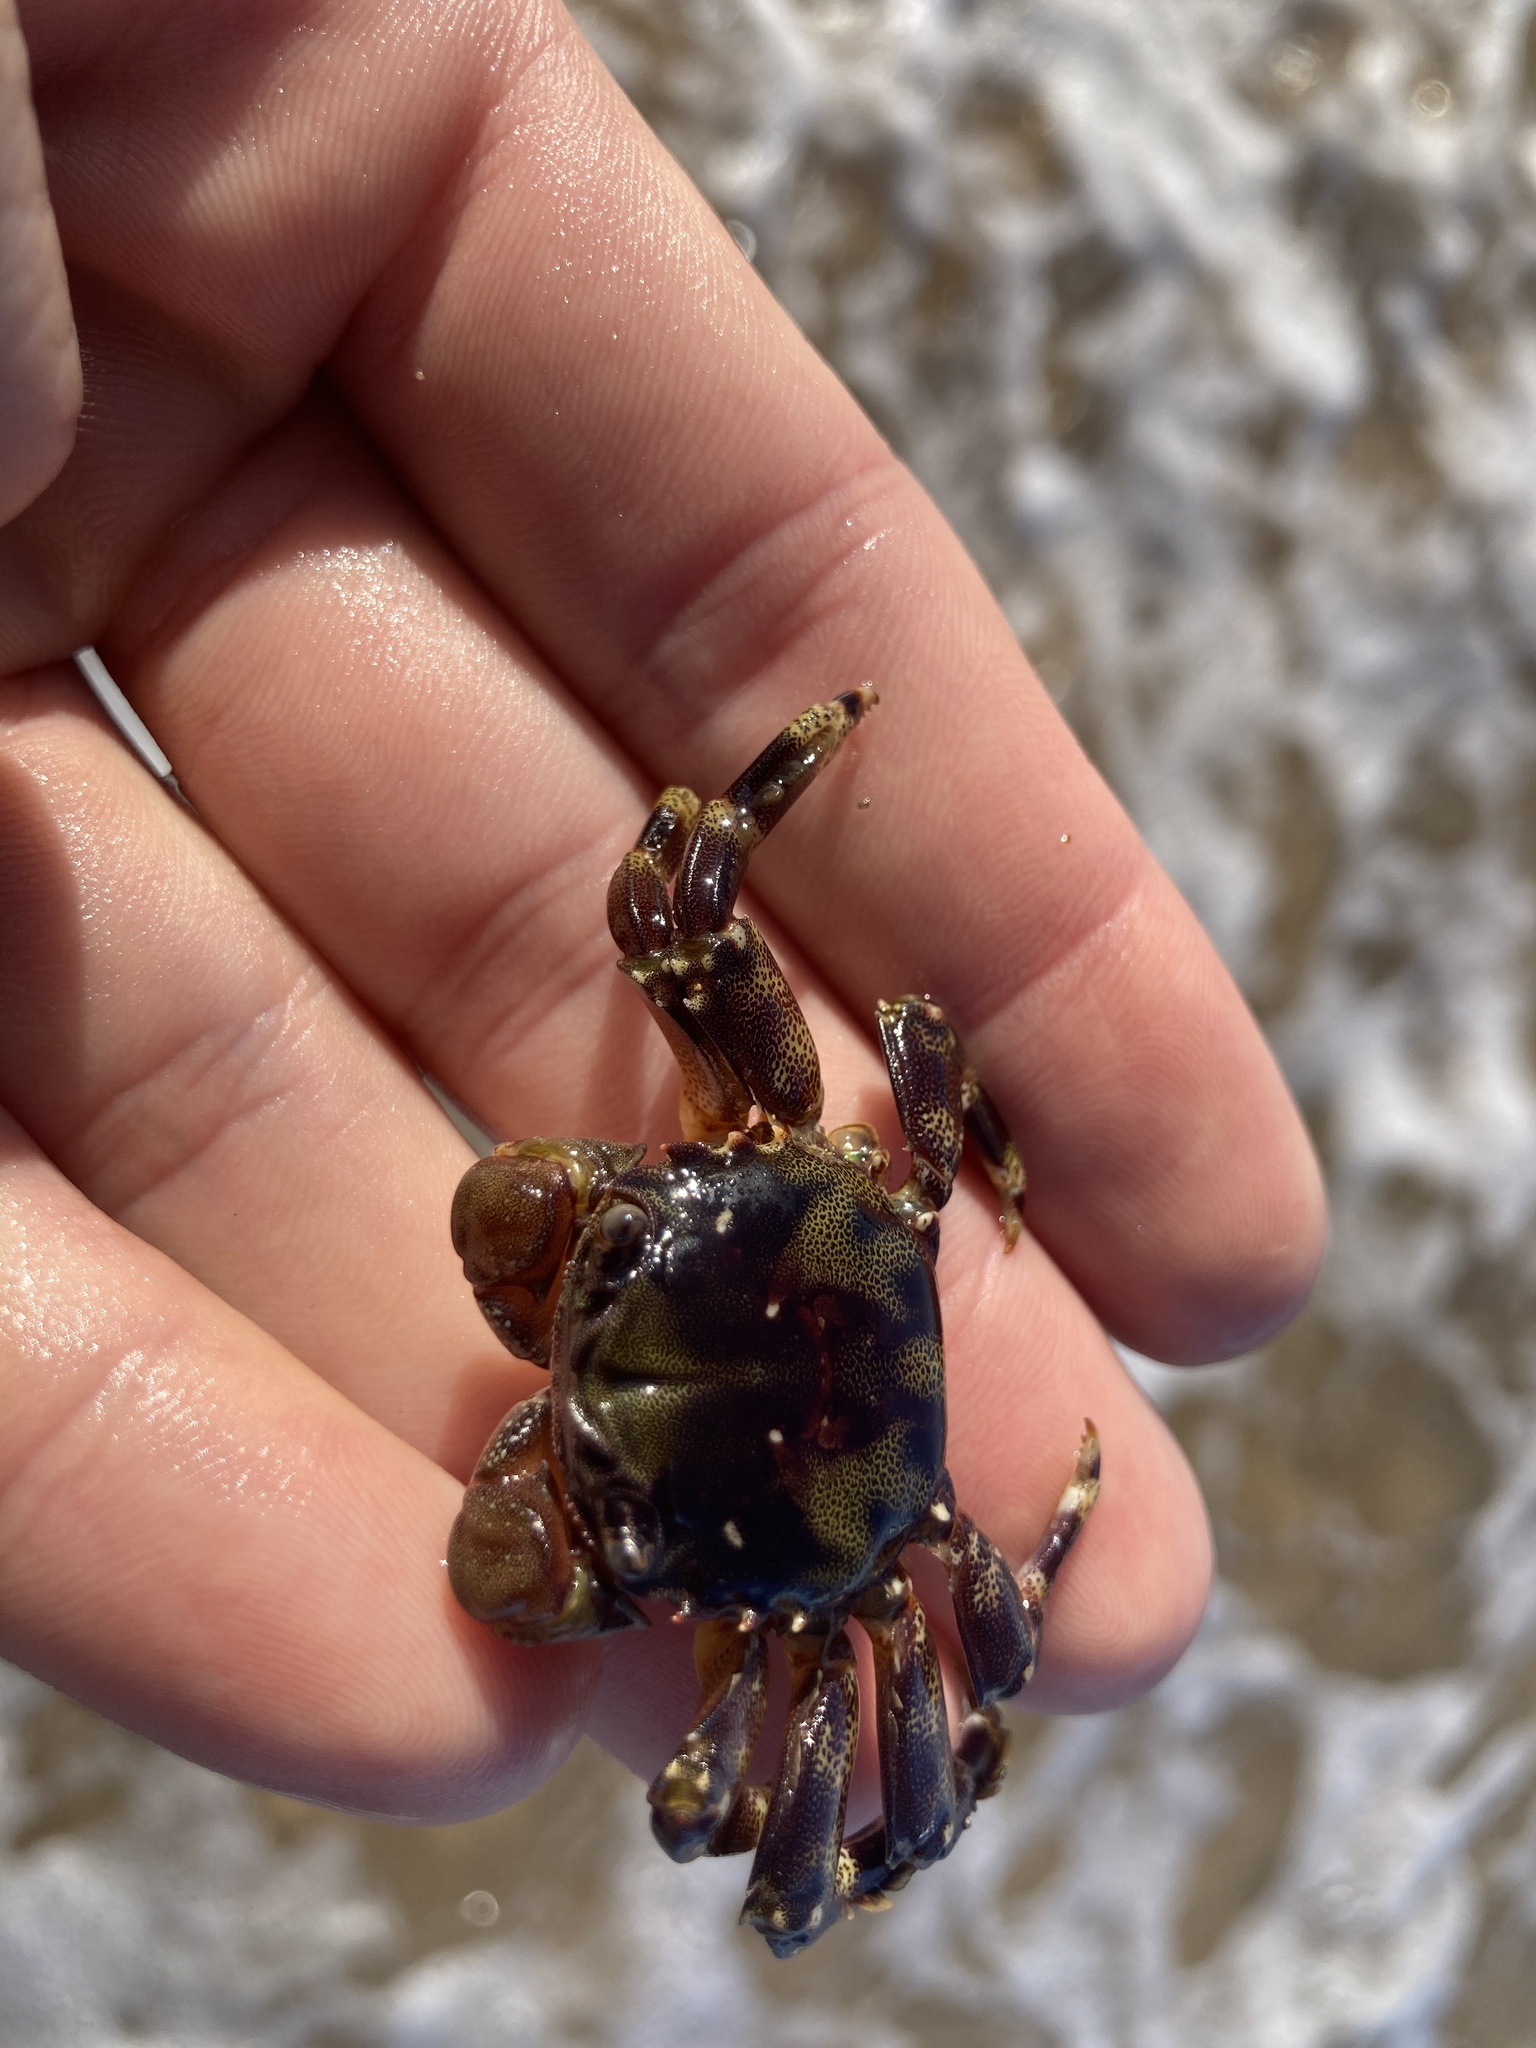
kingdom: Animalia
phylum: Arthropoda
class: Malacostraca
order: Decapoda
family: Plagusiidae
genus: Davusia
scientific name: Davusia glabra
